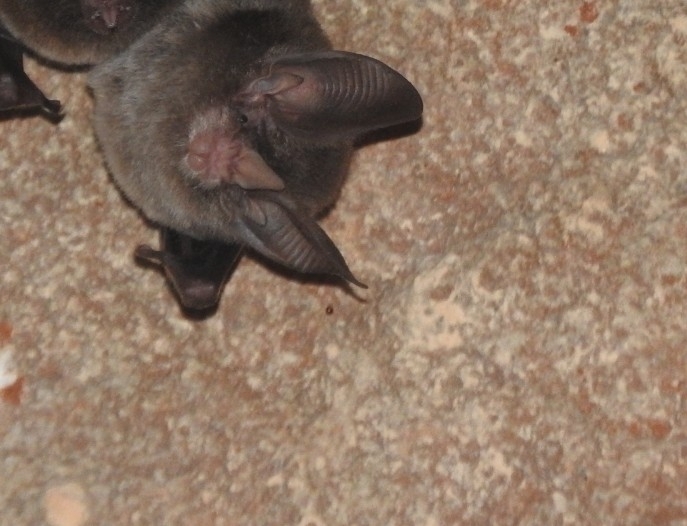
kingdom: Animalia
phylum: Chordata
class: Mammalia
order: Chiroptera
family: Phyllostomidae
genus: Micronycteris
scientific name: Micronycteris microtis
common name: Common big-eared bat
